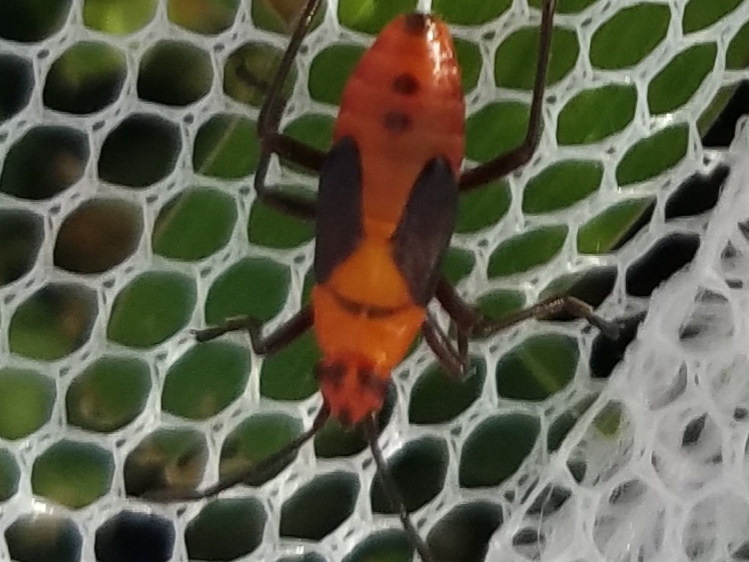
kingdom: Animalia
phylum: Arthropoda
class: Insecta
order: Hemiptera
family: Lygaeidae
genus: Oncopeltus
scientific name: Oncopeltus fasciatus
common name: Large milkweed bug
